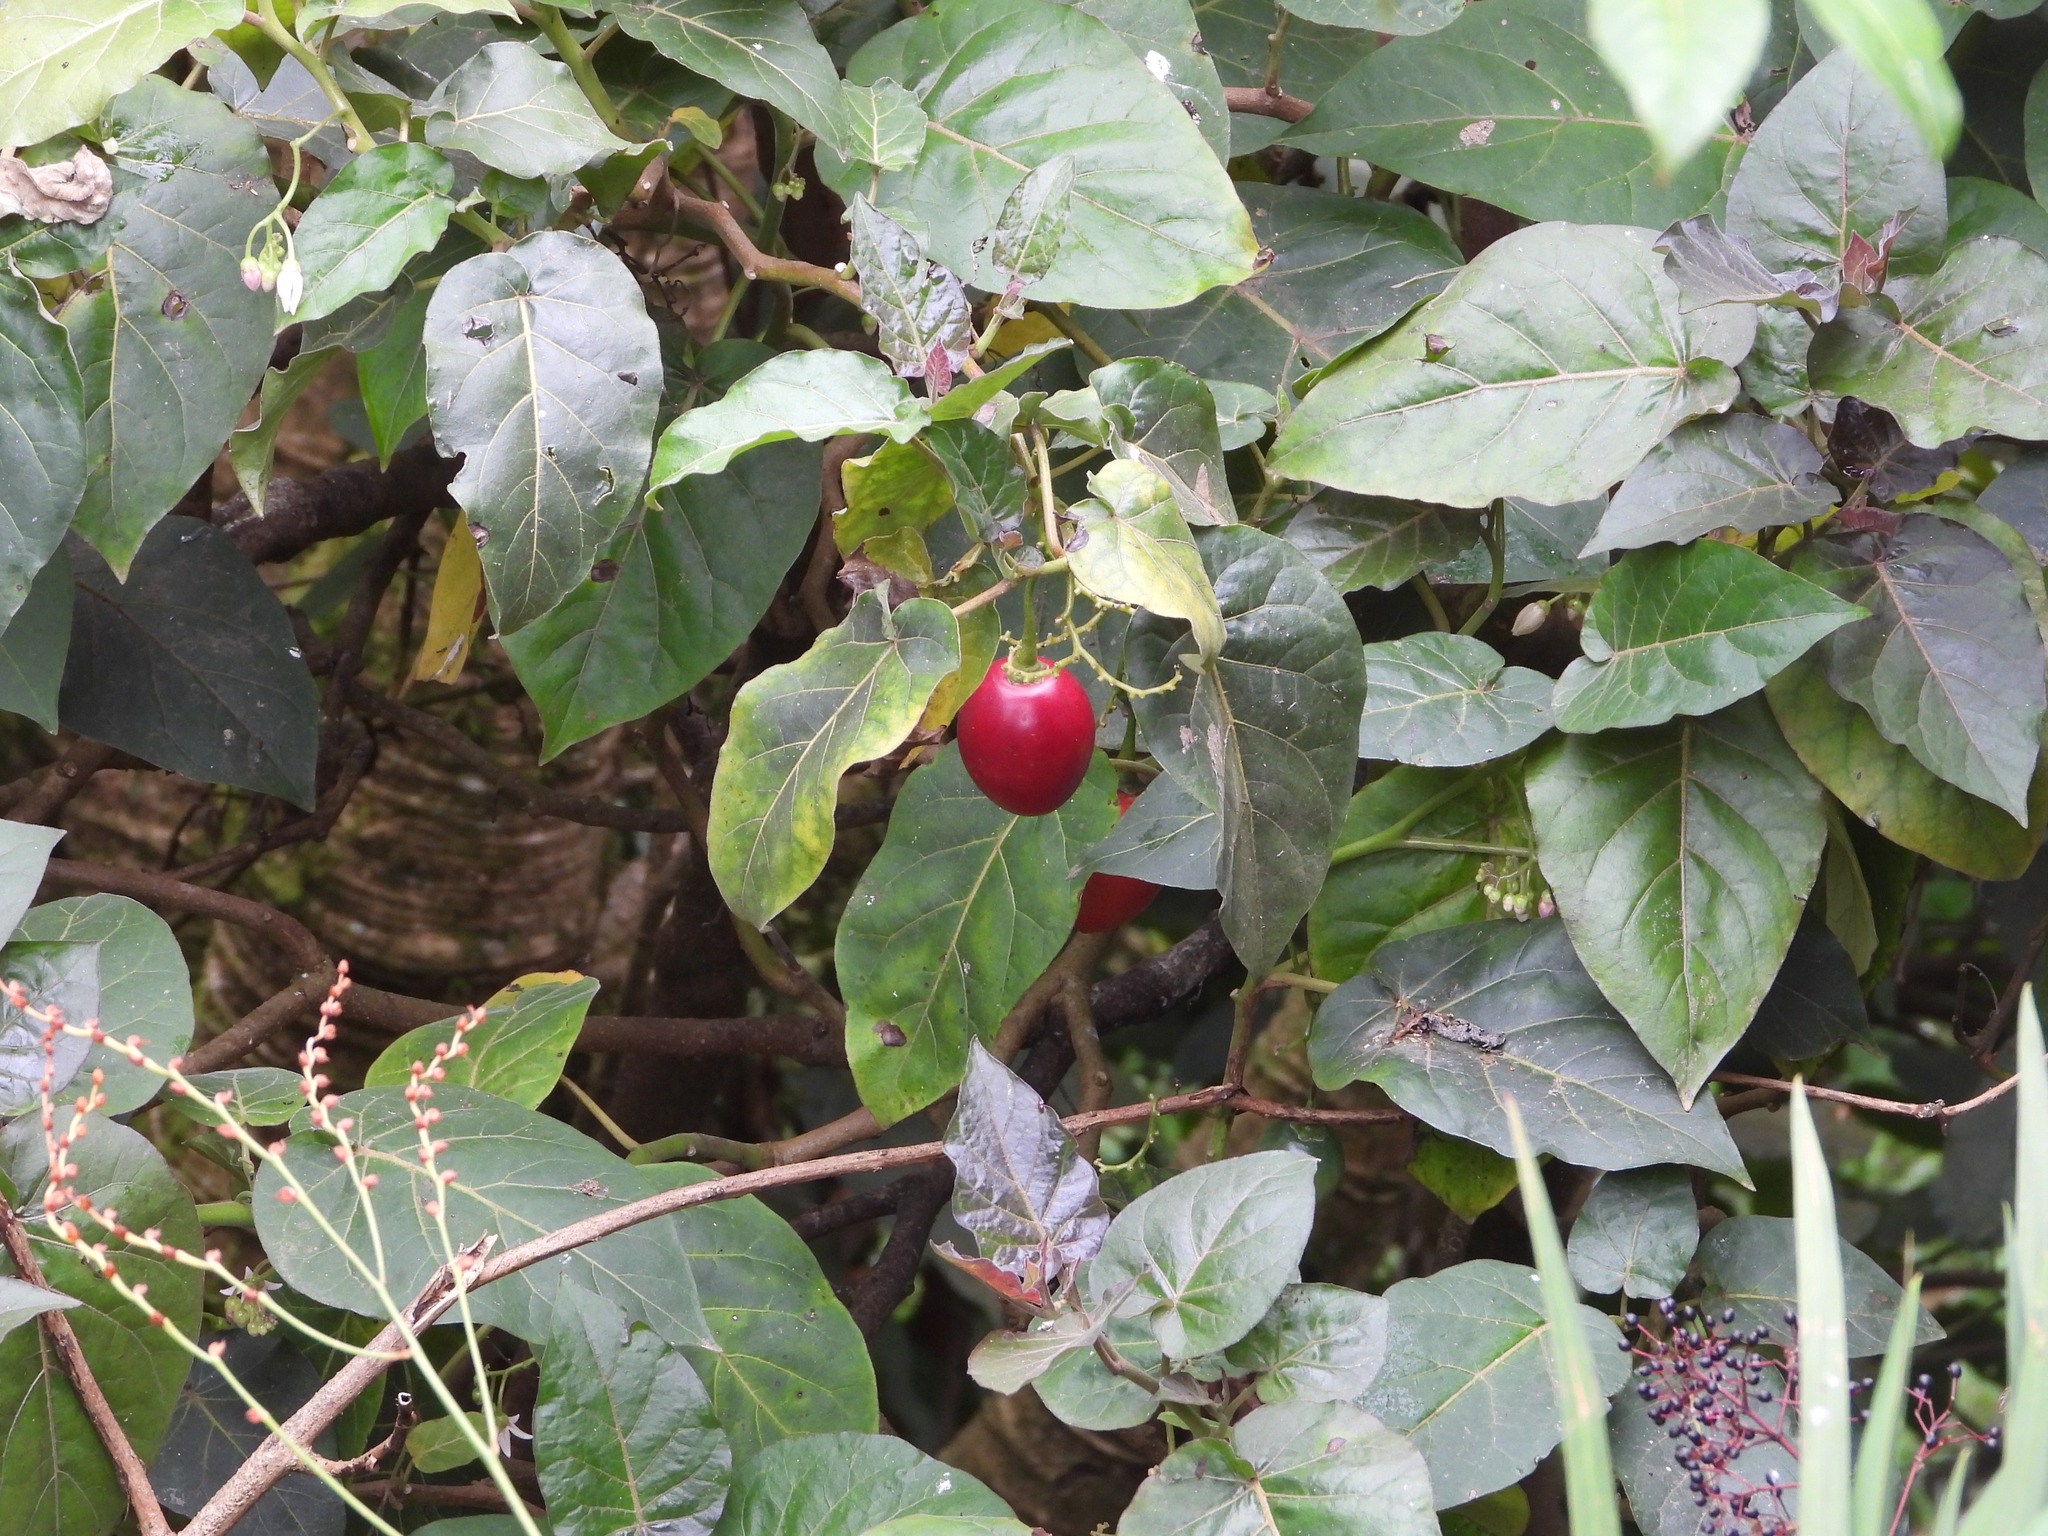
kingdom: Plantae
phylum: Tracheophyta
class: Magnoliopsida
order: Solanales
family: Solanaceae
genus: Solanum
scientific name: Solanum betaceum
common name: Tamarillo
